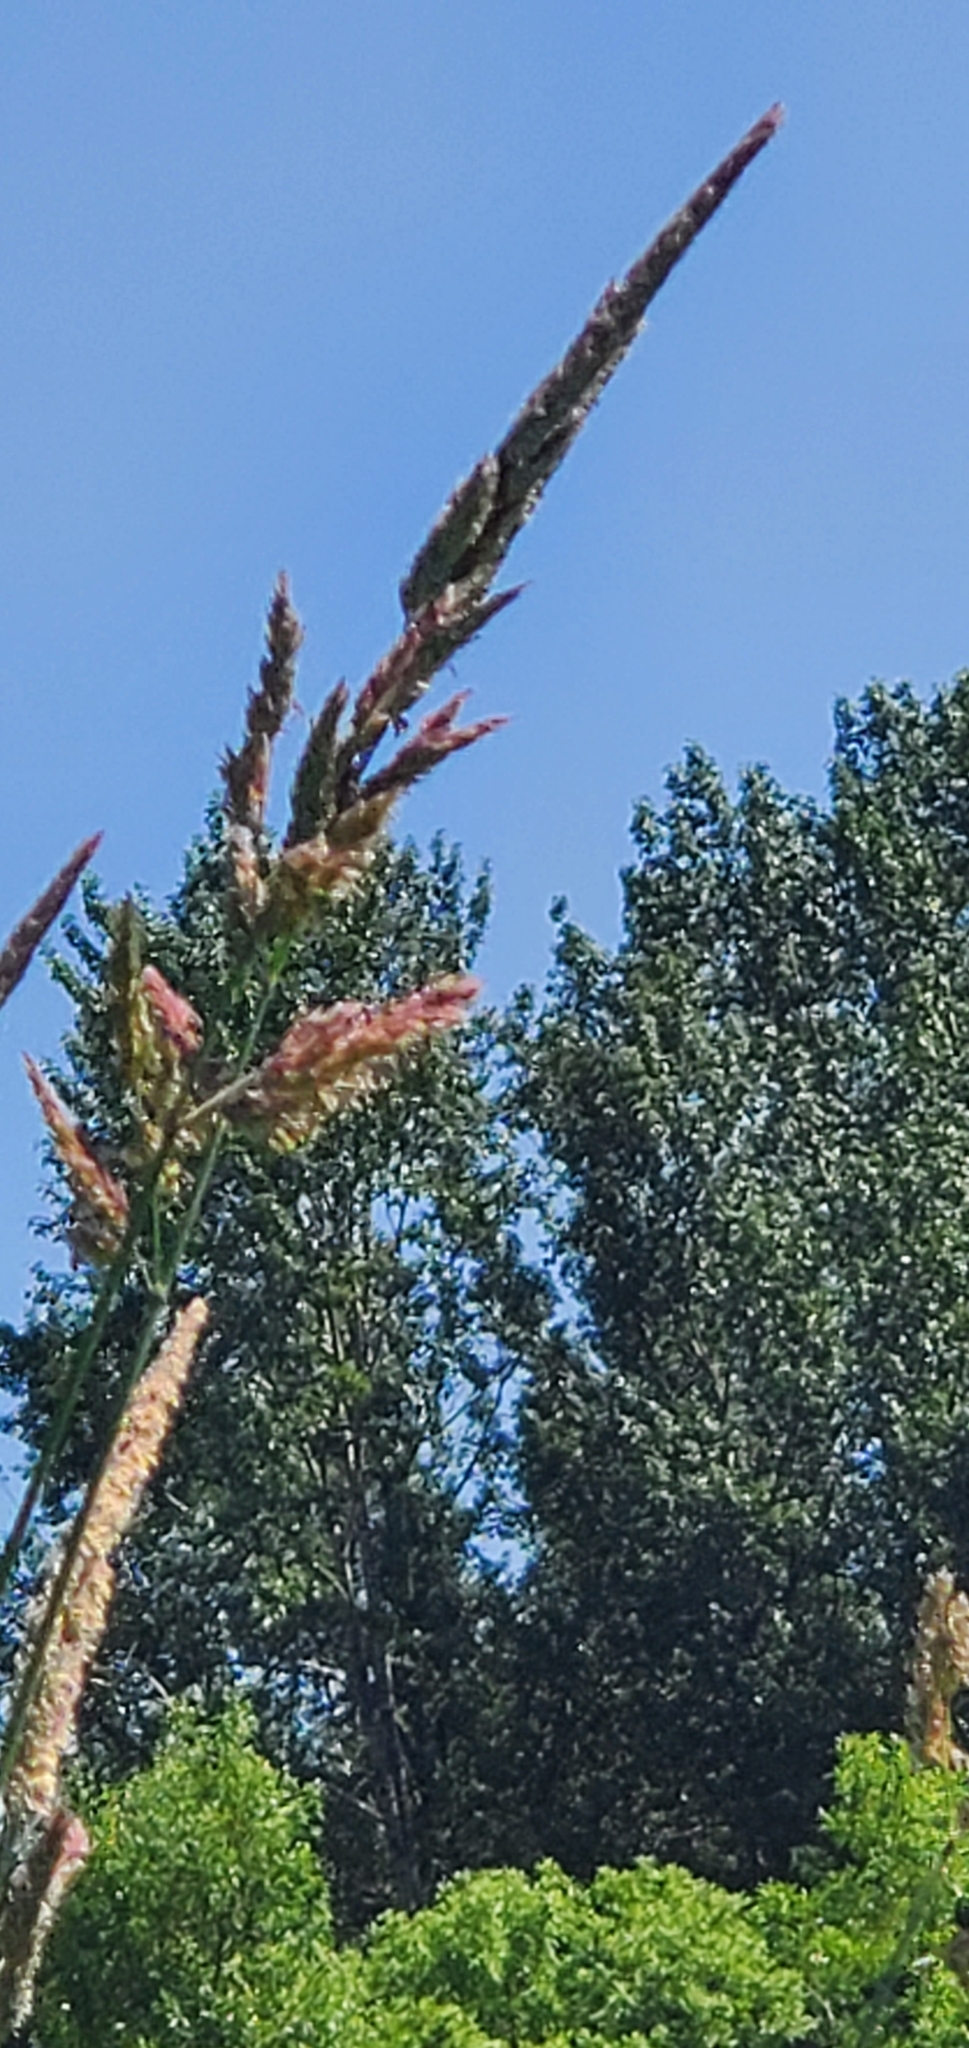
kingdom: Plantae
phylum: Tracheophyta
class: Liliopsida
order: Poales
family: Poaceae
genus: Phalaris
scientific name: Phalaris arundinacea
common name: Reed canary-grass
